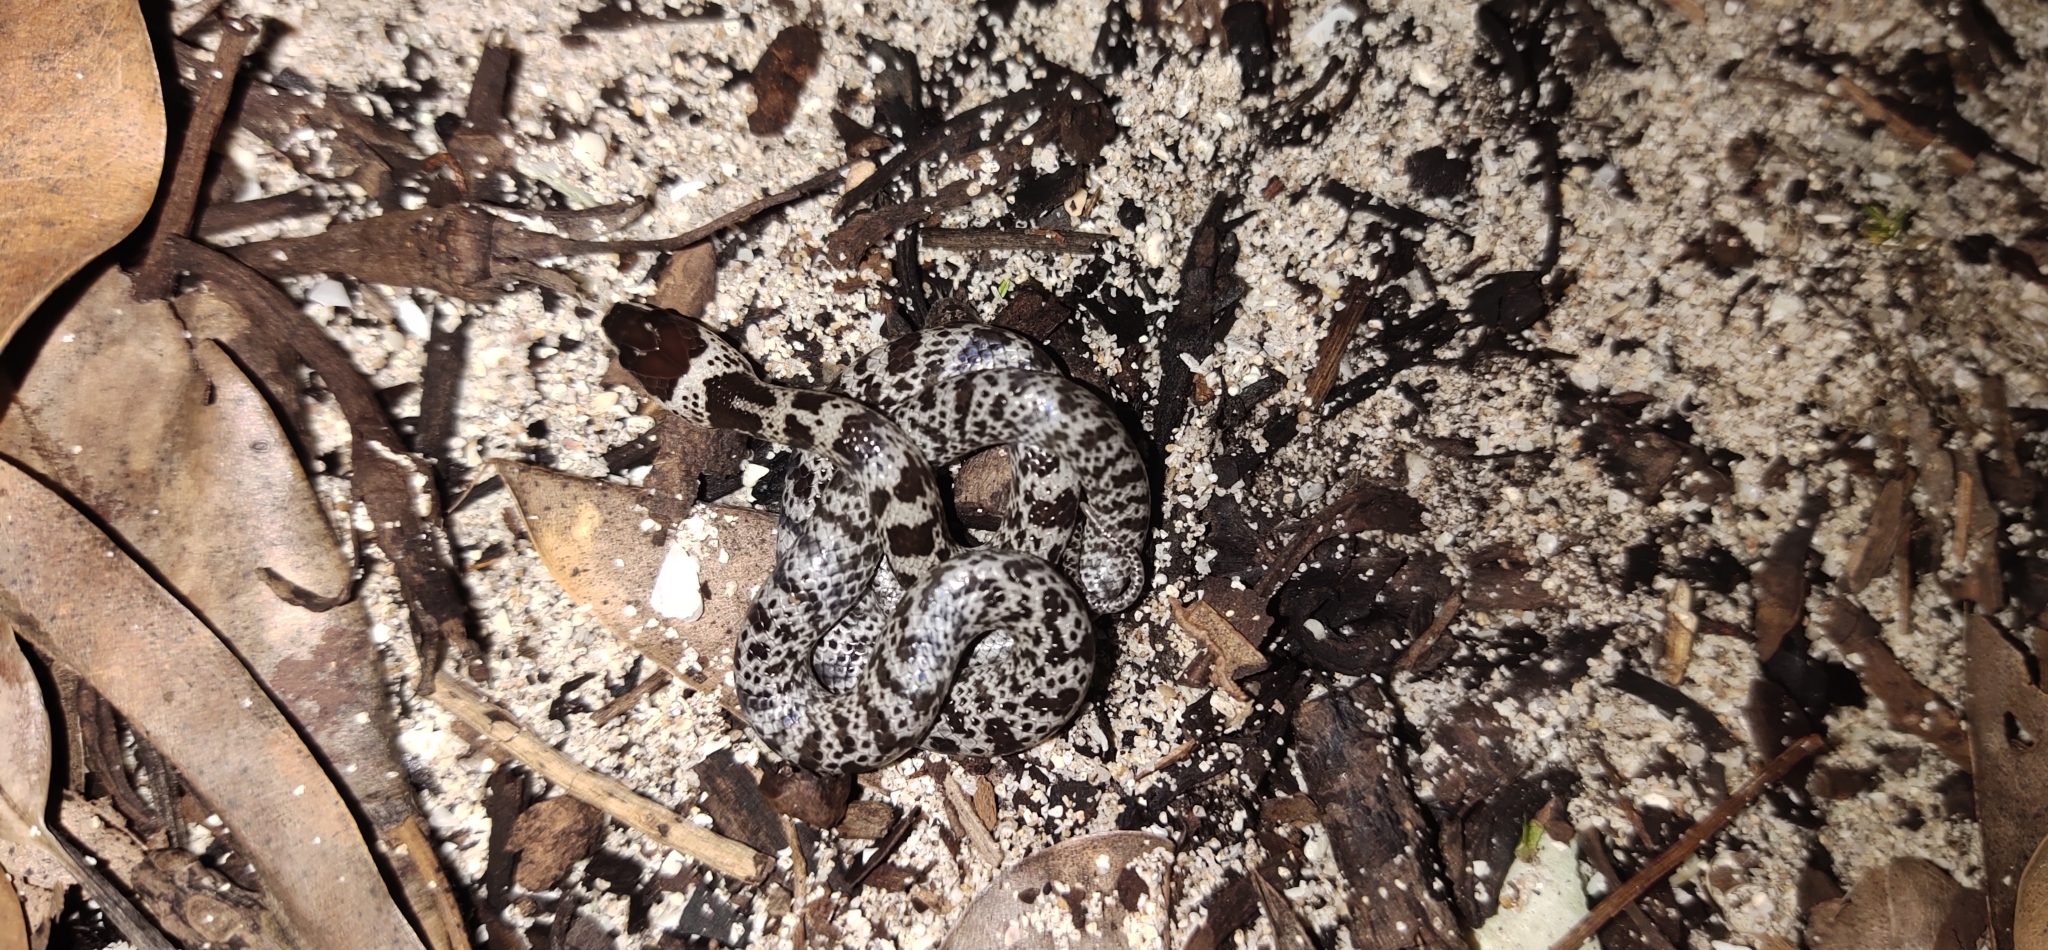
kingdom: Animalia
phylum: Chordata
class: Squamata
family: Colubridae
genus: Lycodon
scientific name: Lycodon hypsirhinoides
